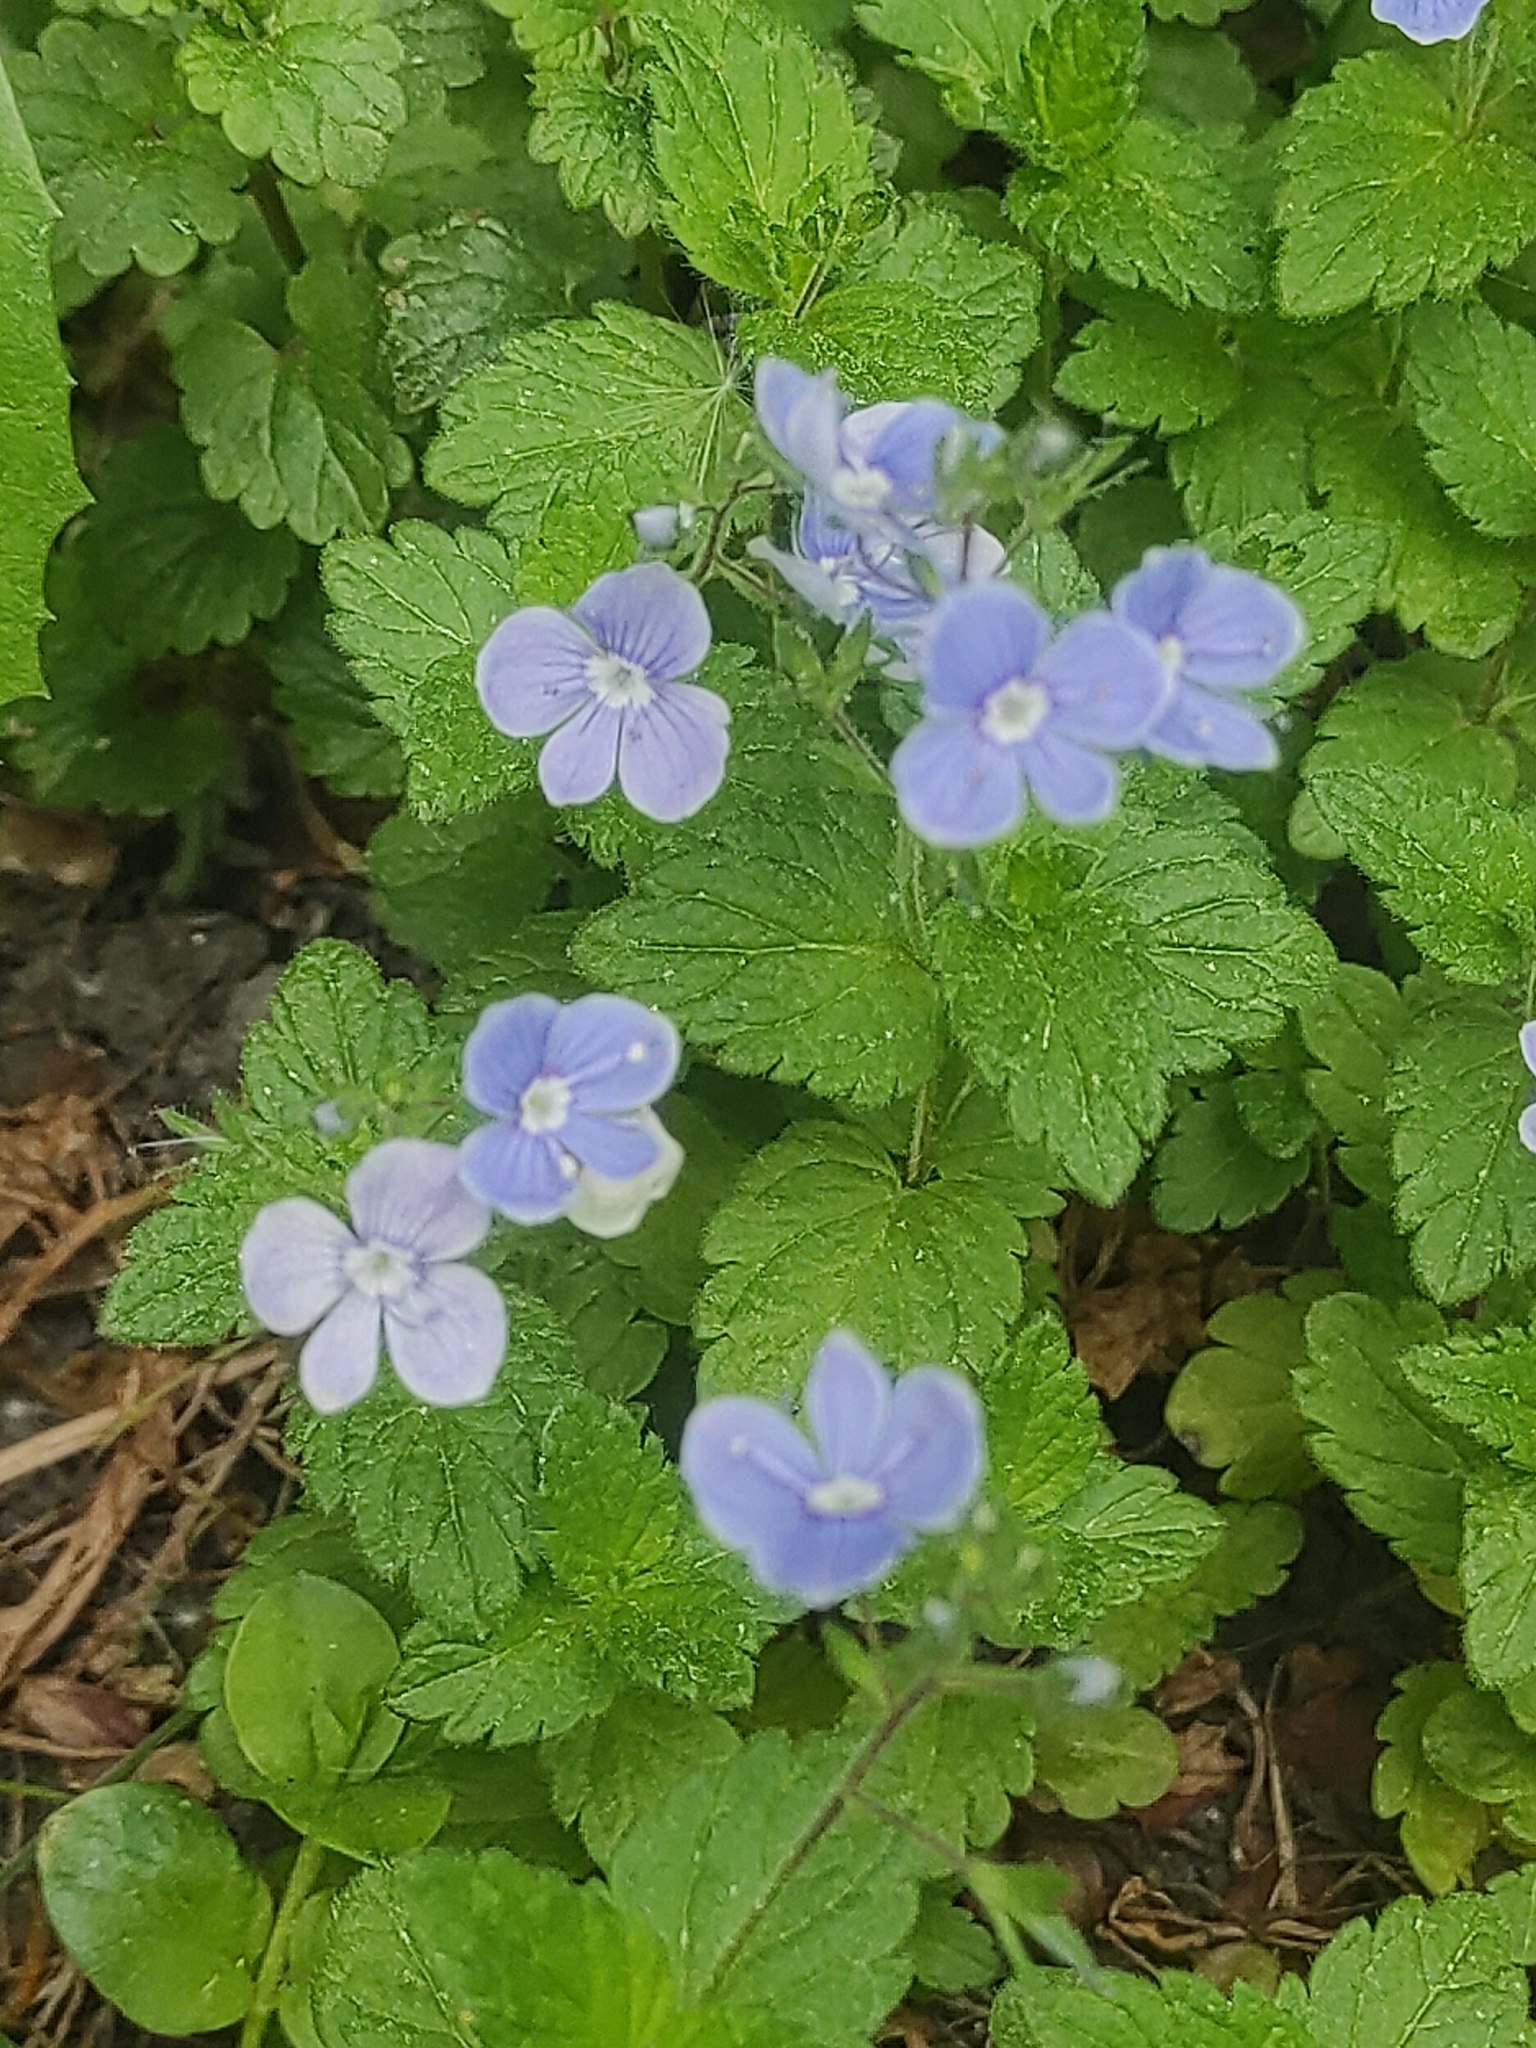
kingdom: Plantae
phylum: Tracheophyta
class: Magnoliopsida
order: Lamiales
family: Plantaginaceae
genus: Veronica
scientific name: Veronica chamaedrys
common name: Germander speedwell
